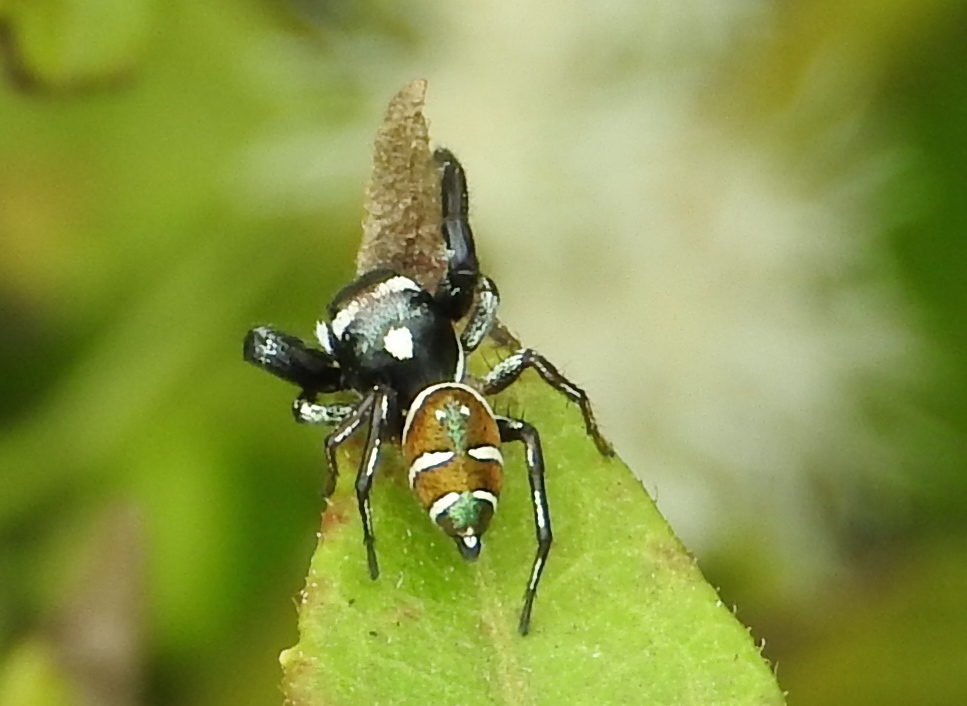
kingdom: Animalia
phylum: Arthropoda
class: Arachnida
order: Araneae
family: Salticidae
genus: Sassacus
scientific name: Sassacus
